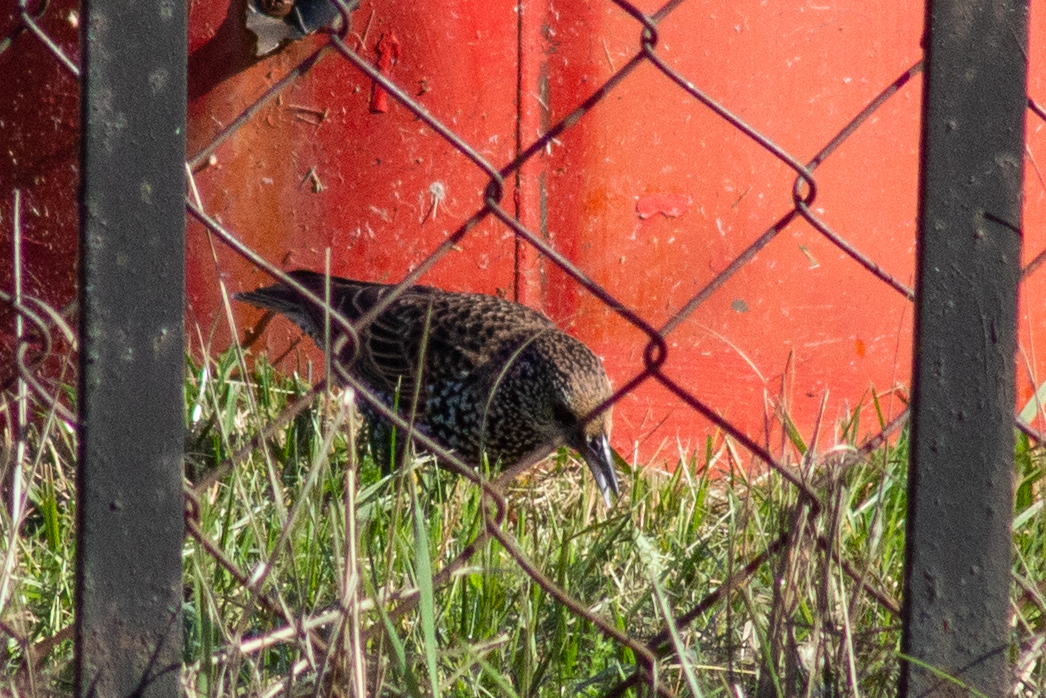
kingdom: Animalia
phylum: Chordata
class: Aves
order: Passeriformes
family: Sturnidae
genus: Sturnus
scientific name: Sturnus vulgaris
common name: Common starling
